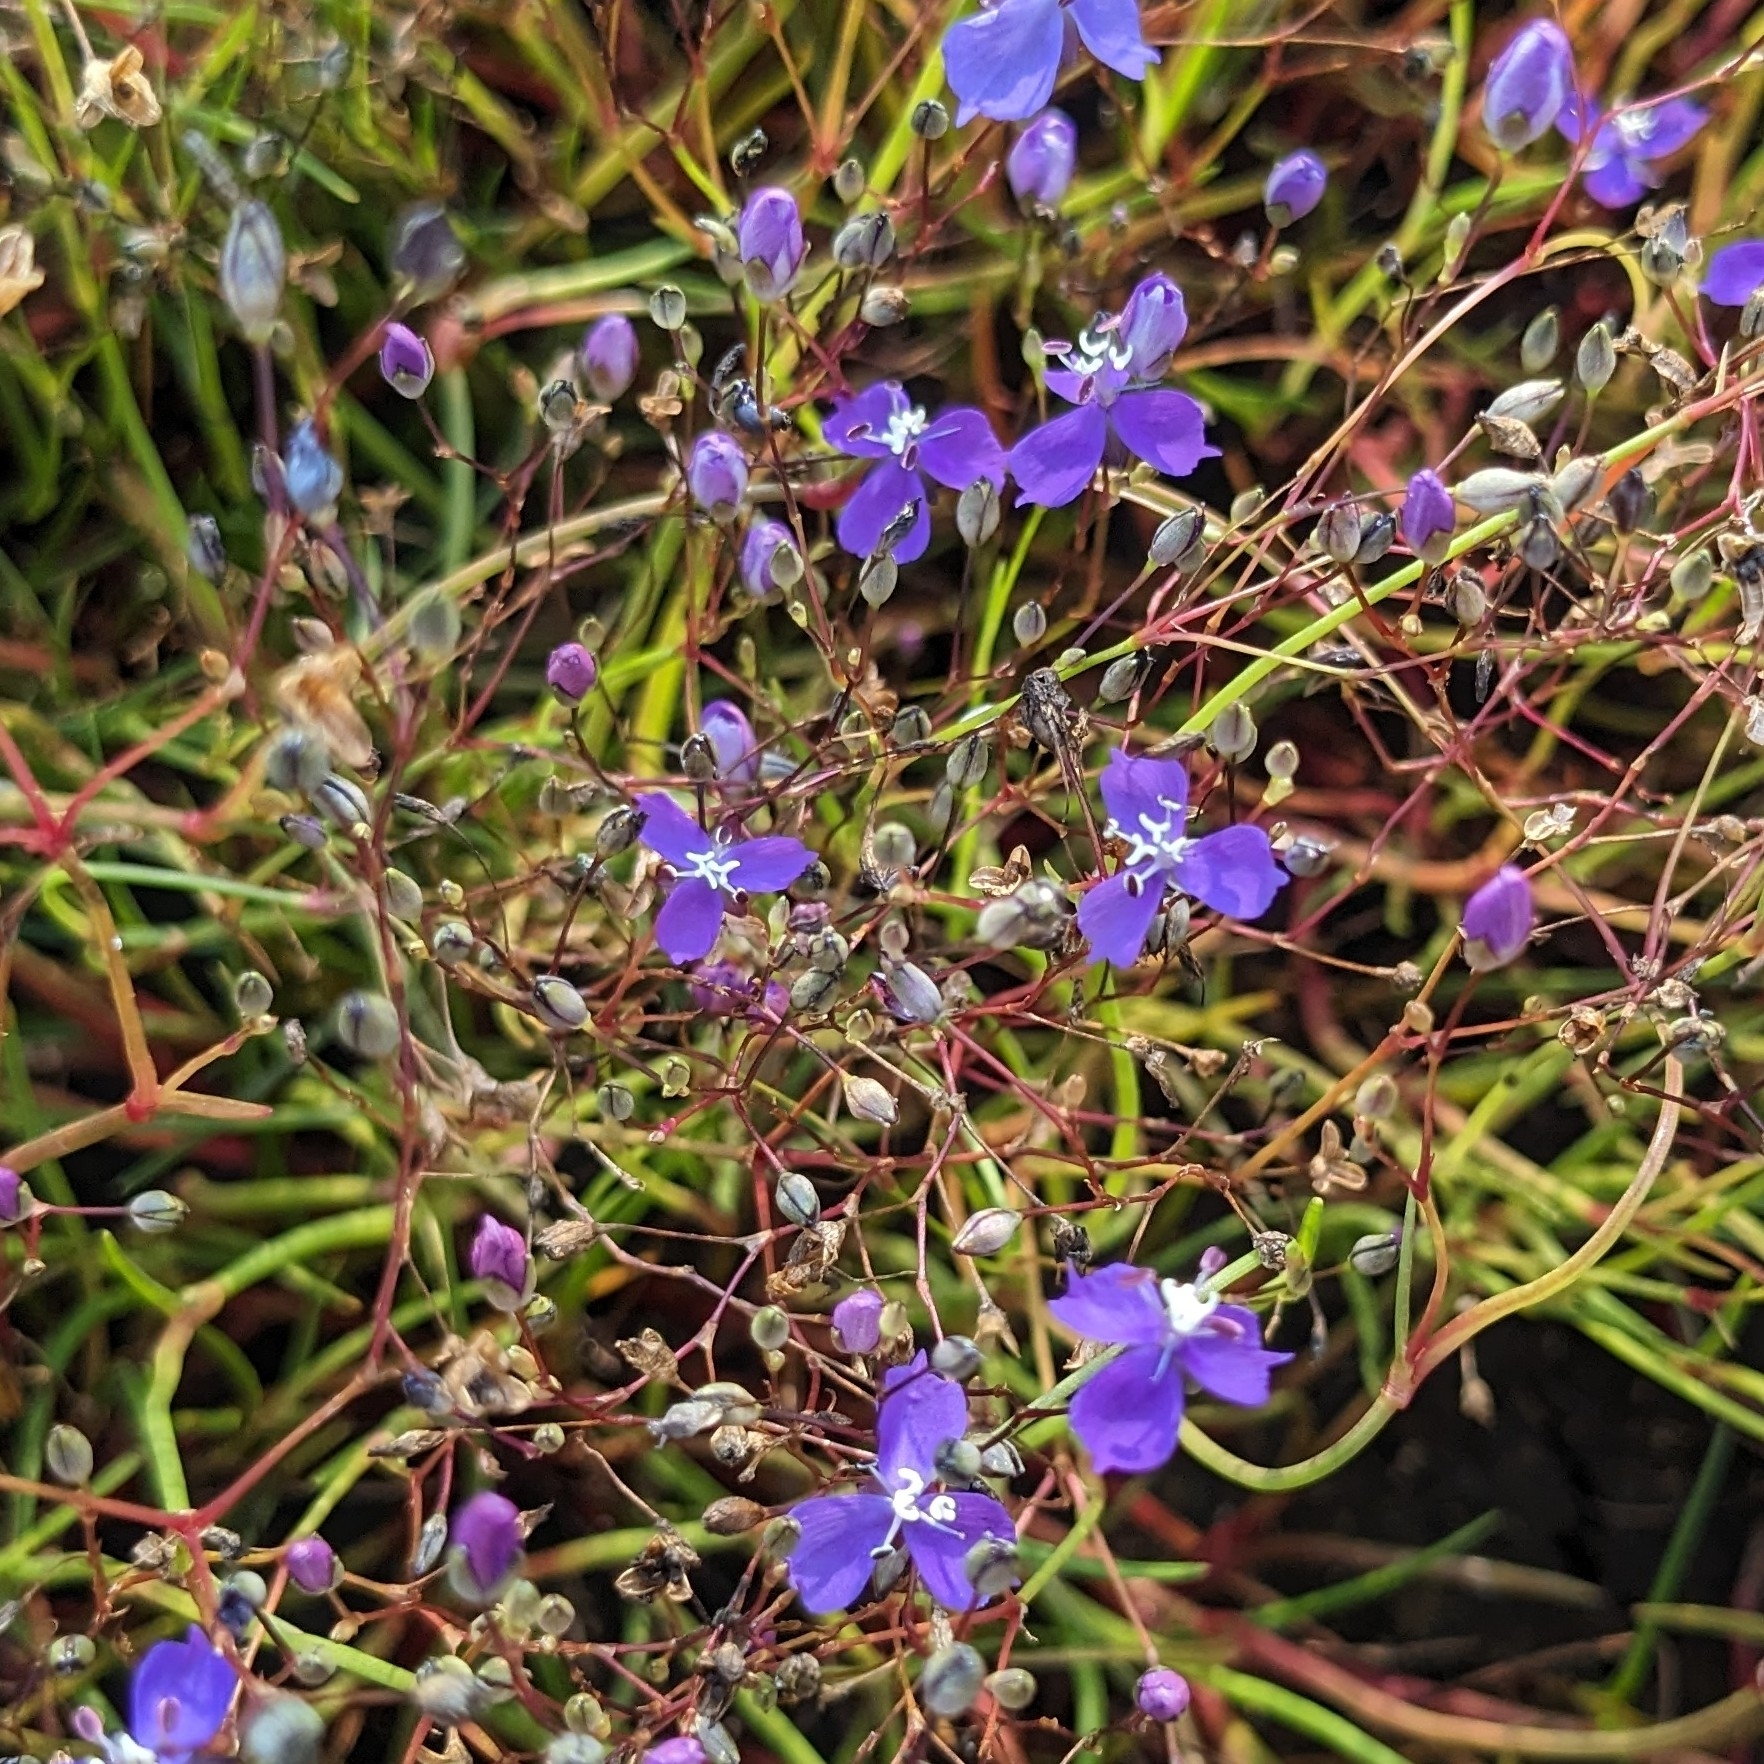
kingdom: Plantae
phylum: Tracheophyta
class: Liliopsida
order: Commelinales
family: Commelinaceae
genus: Murdannia
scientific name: Murdannia semiteres
